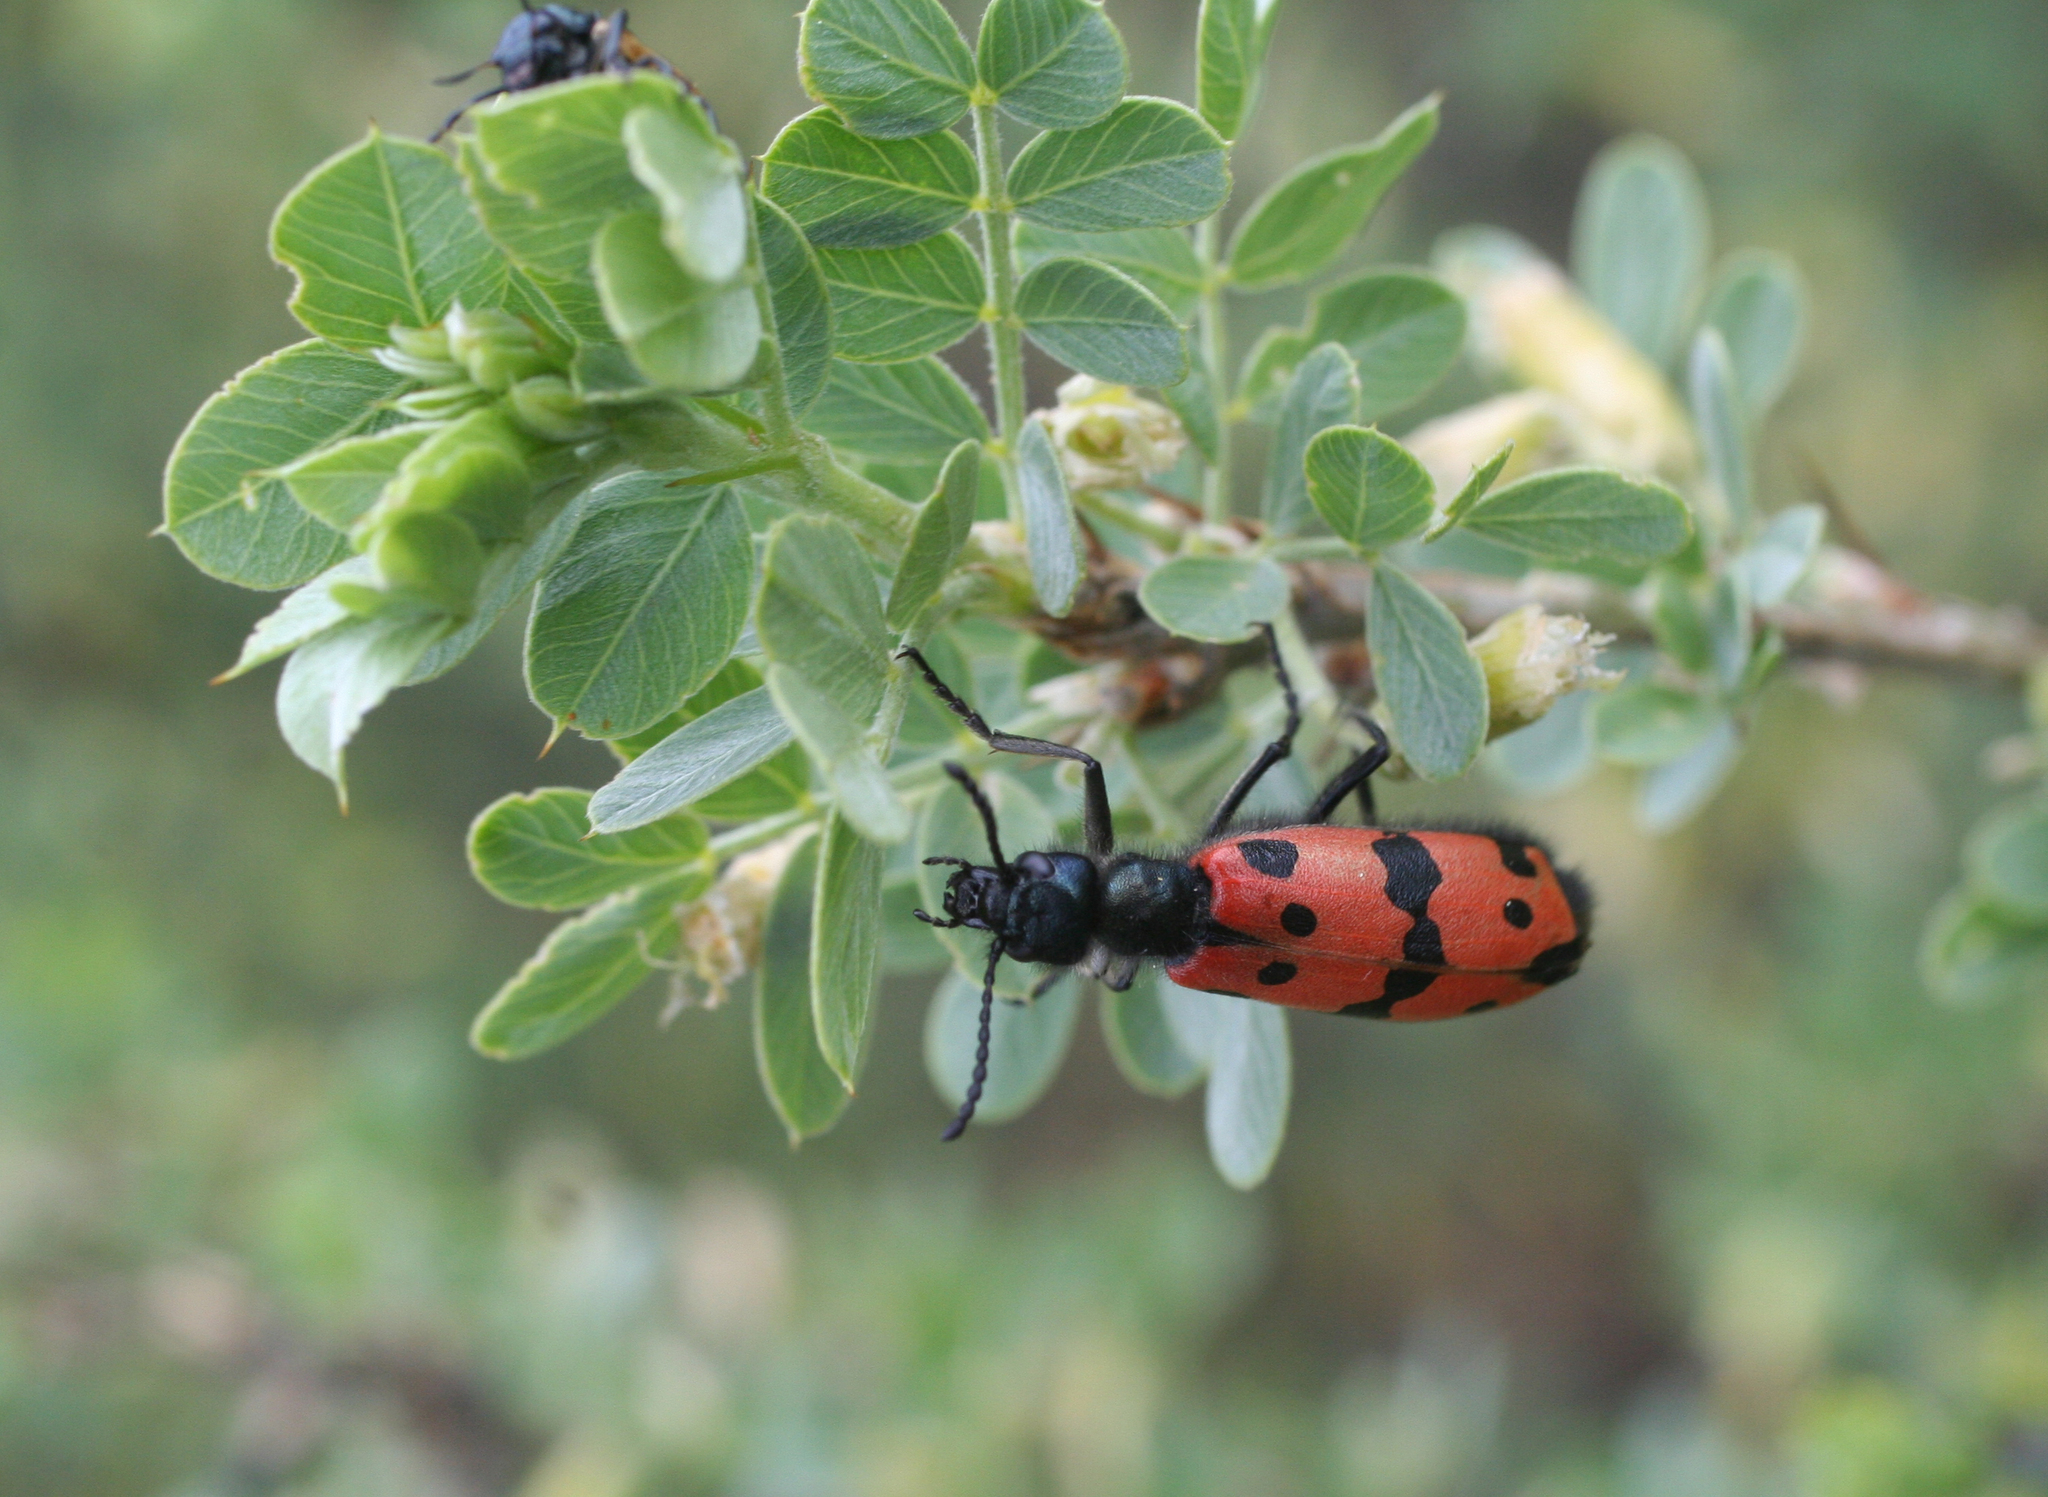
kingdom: Plantae
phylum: Tracheophyta
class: Magnoliopsida
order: Fabales
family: Fabaceae
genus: Caragana
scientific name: Caragana bungei
